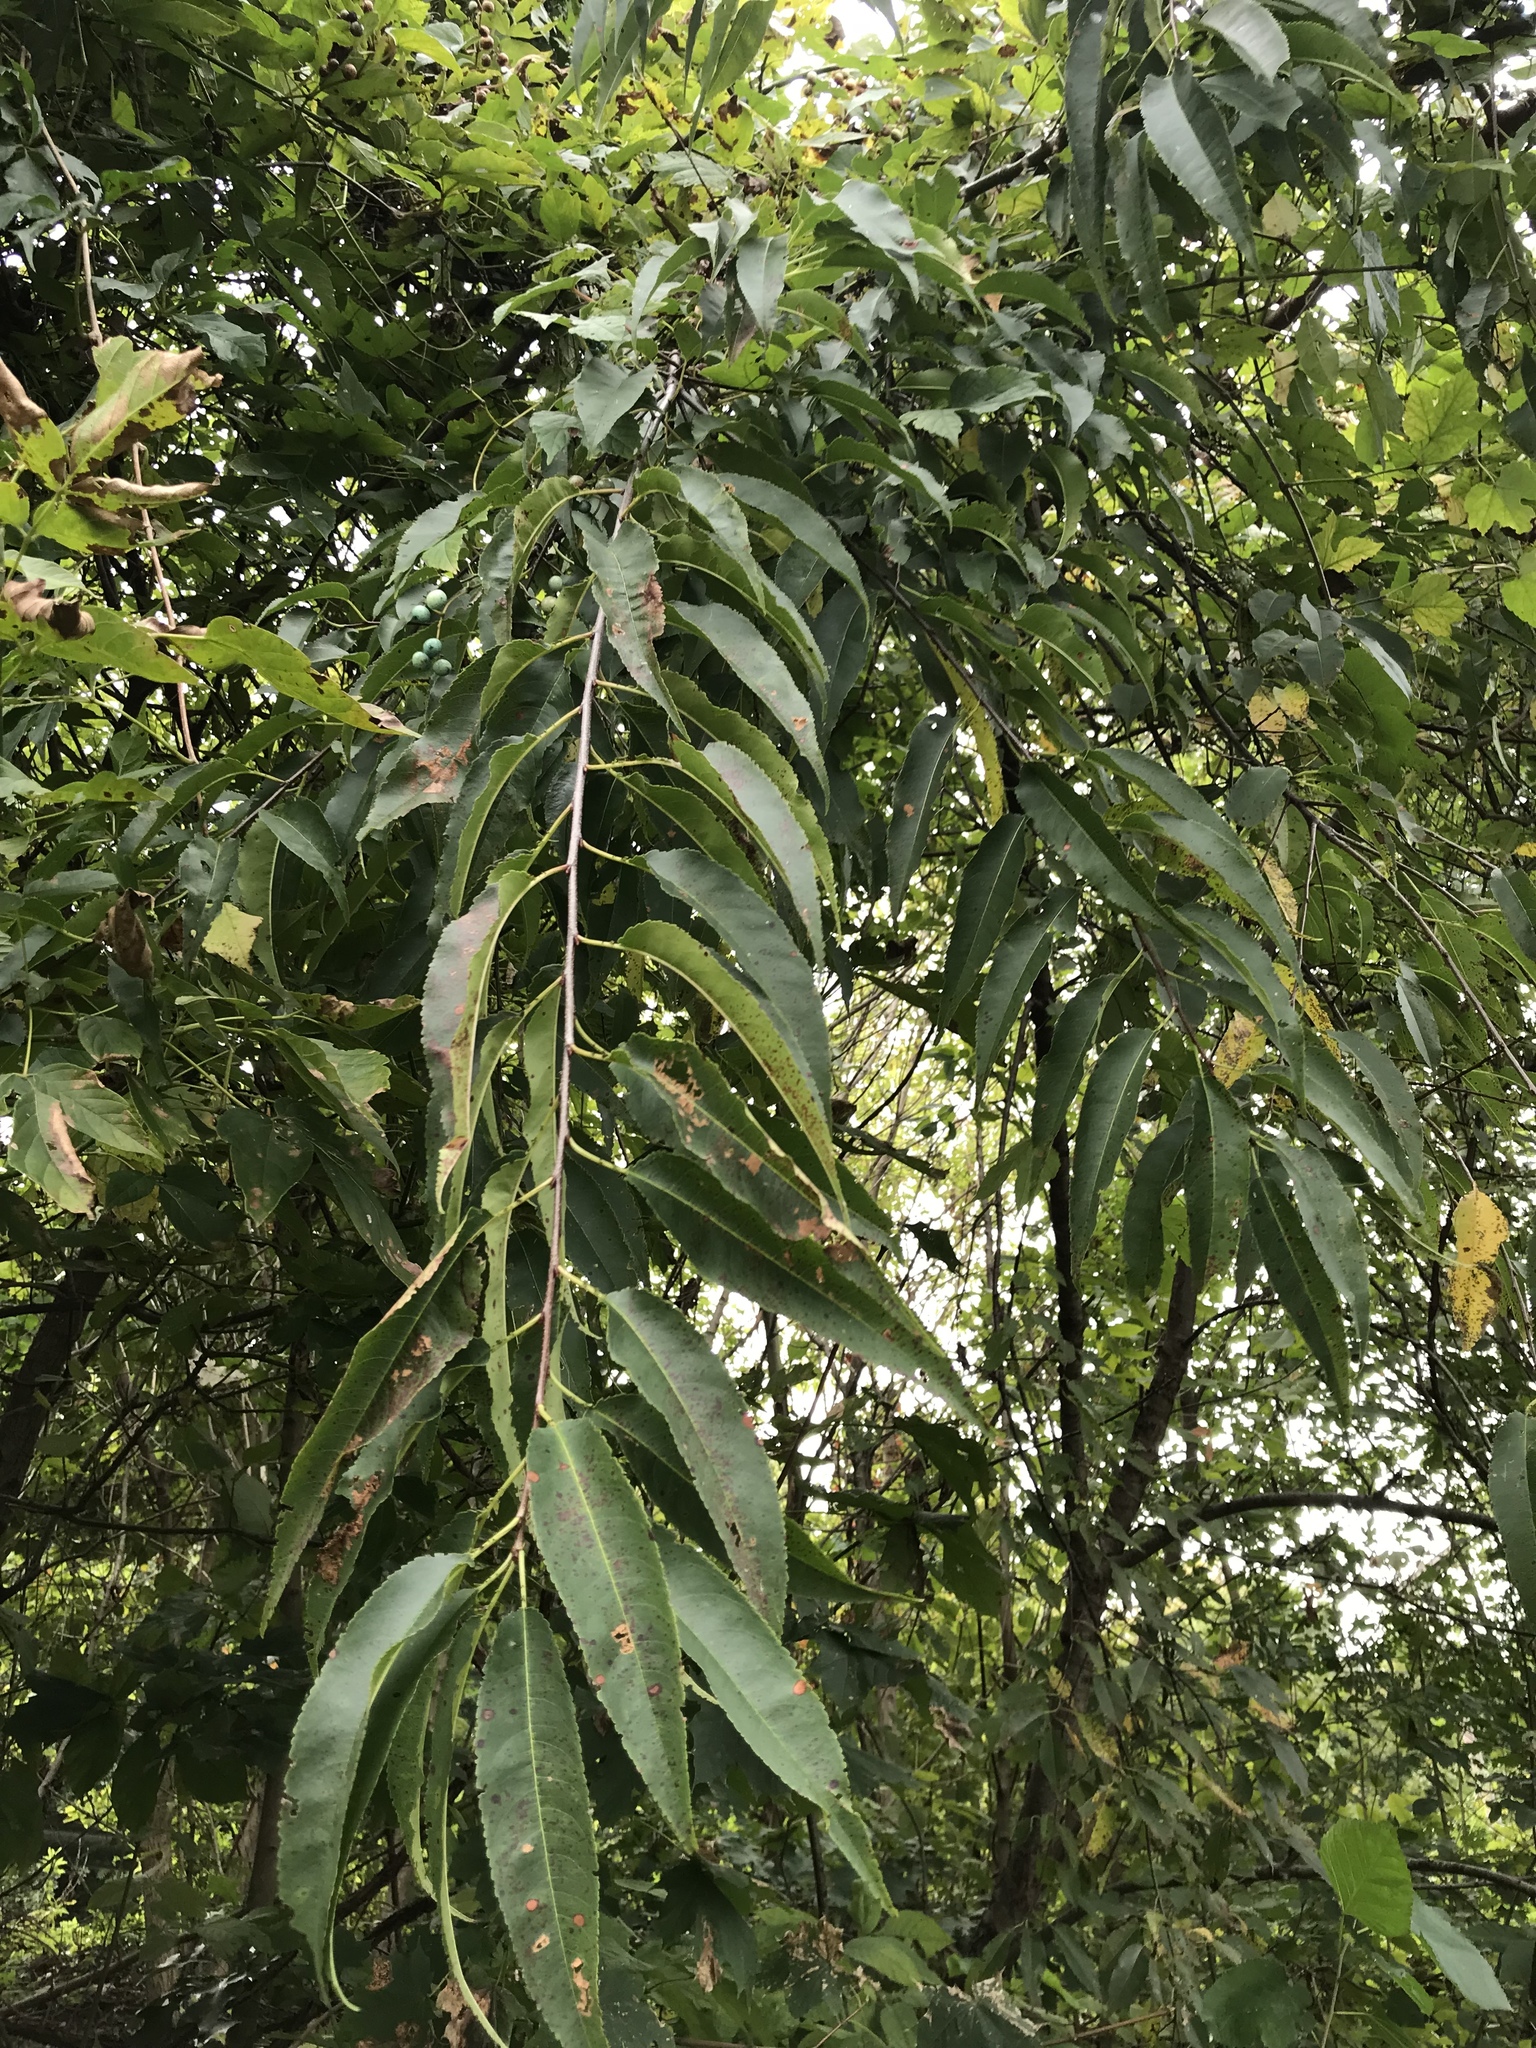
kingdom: Plantae
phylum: Tracheophyta
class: Magnoliopsida
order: Rosales
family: Rosaceae
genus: Prunus
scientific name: Prunus serotina
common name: Black cherry
